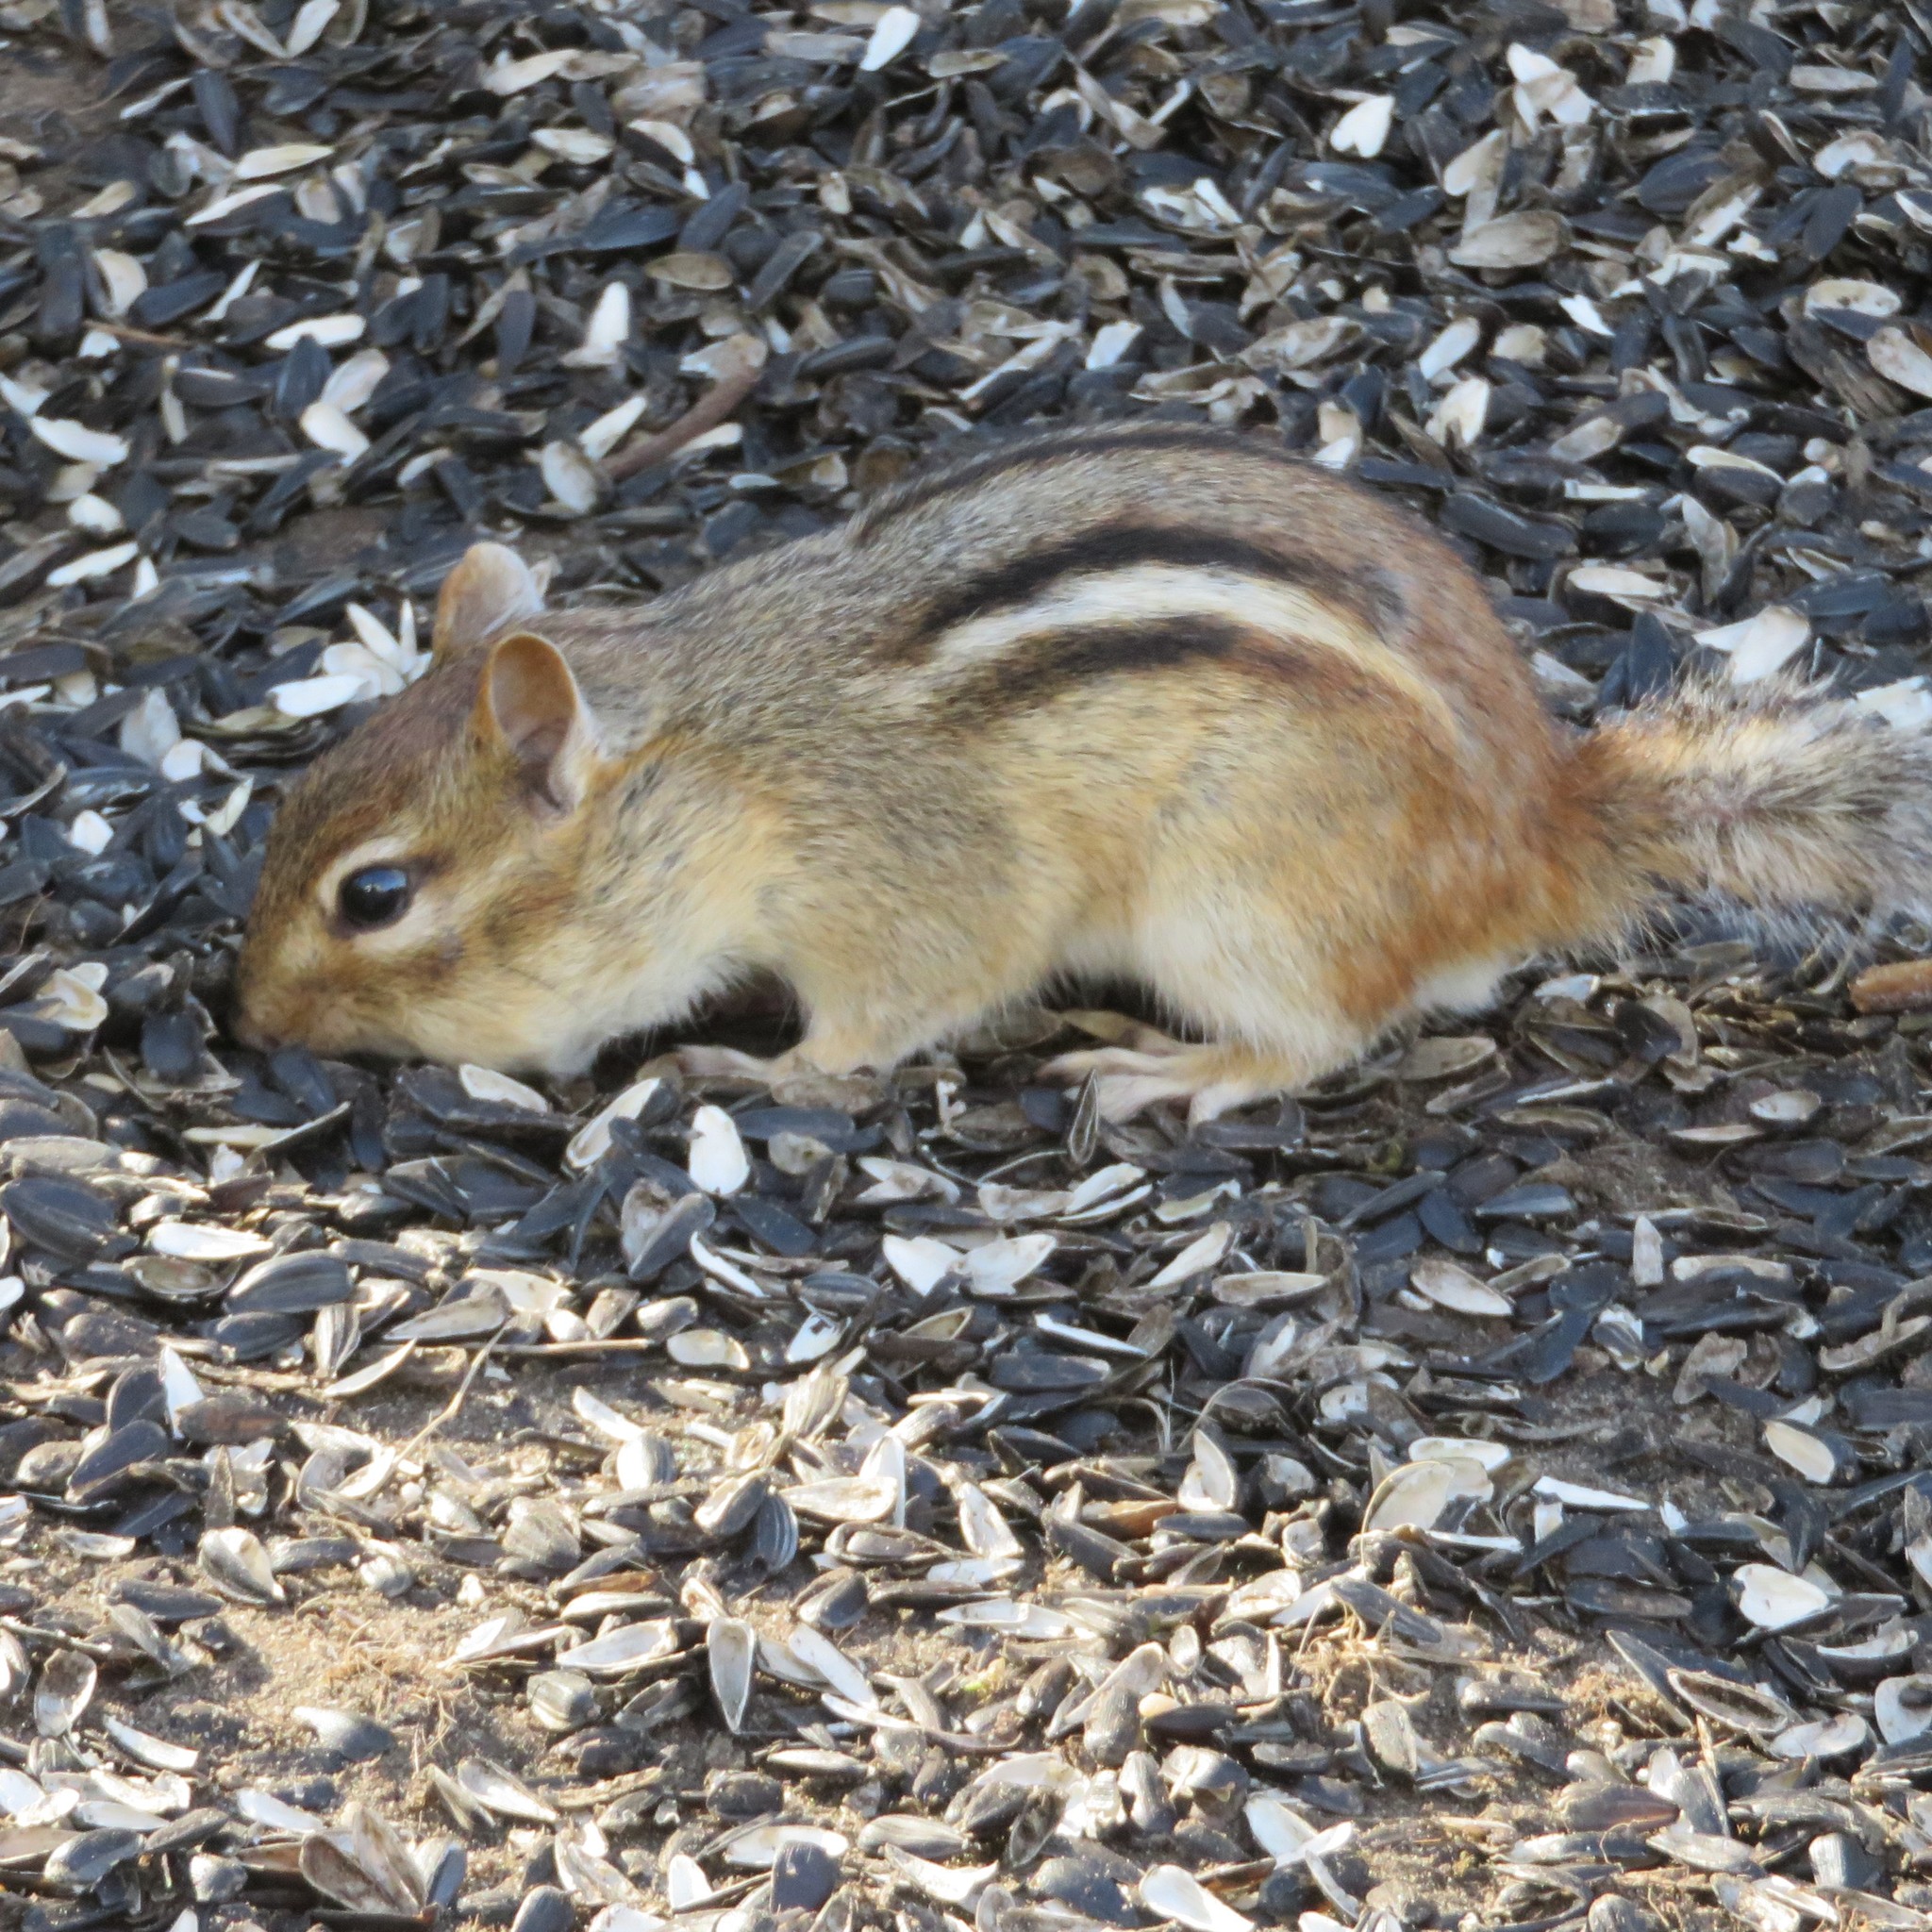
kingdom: Animalia
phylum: Chordata
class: Mammalia
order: Rodentia
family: Sciuridae
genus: Tamias
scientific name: Tamias striatus
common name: Eastern chipmunk
